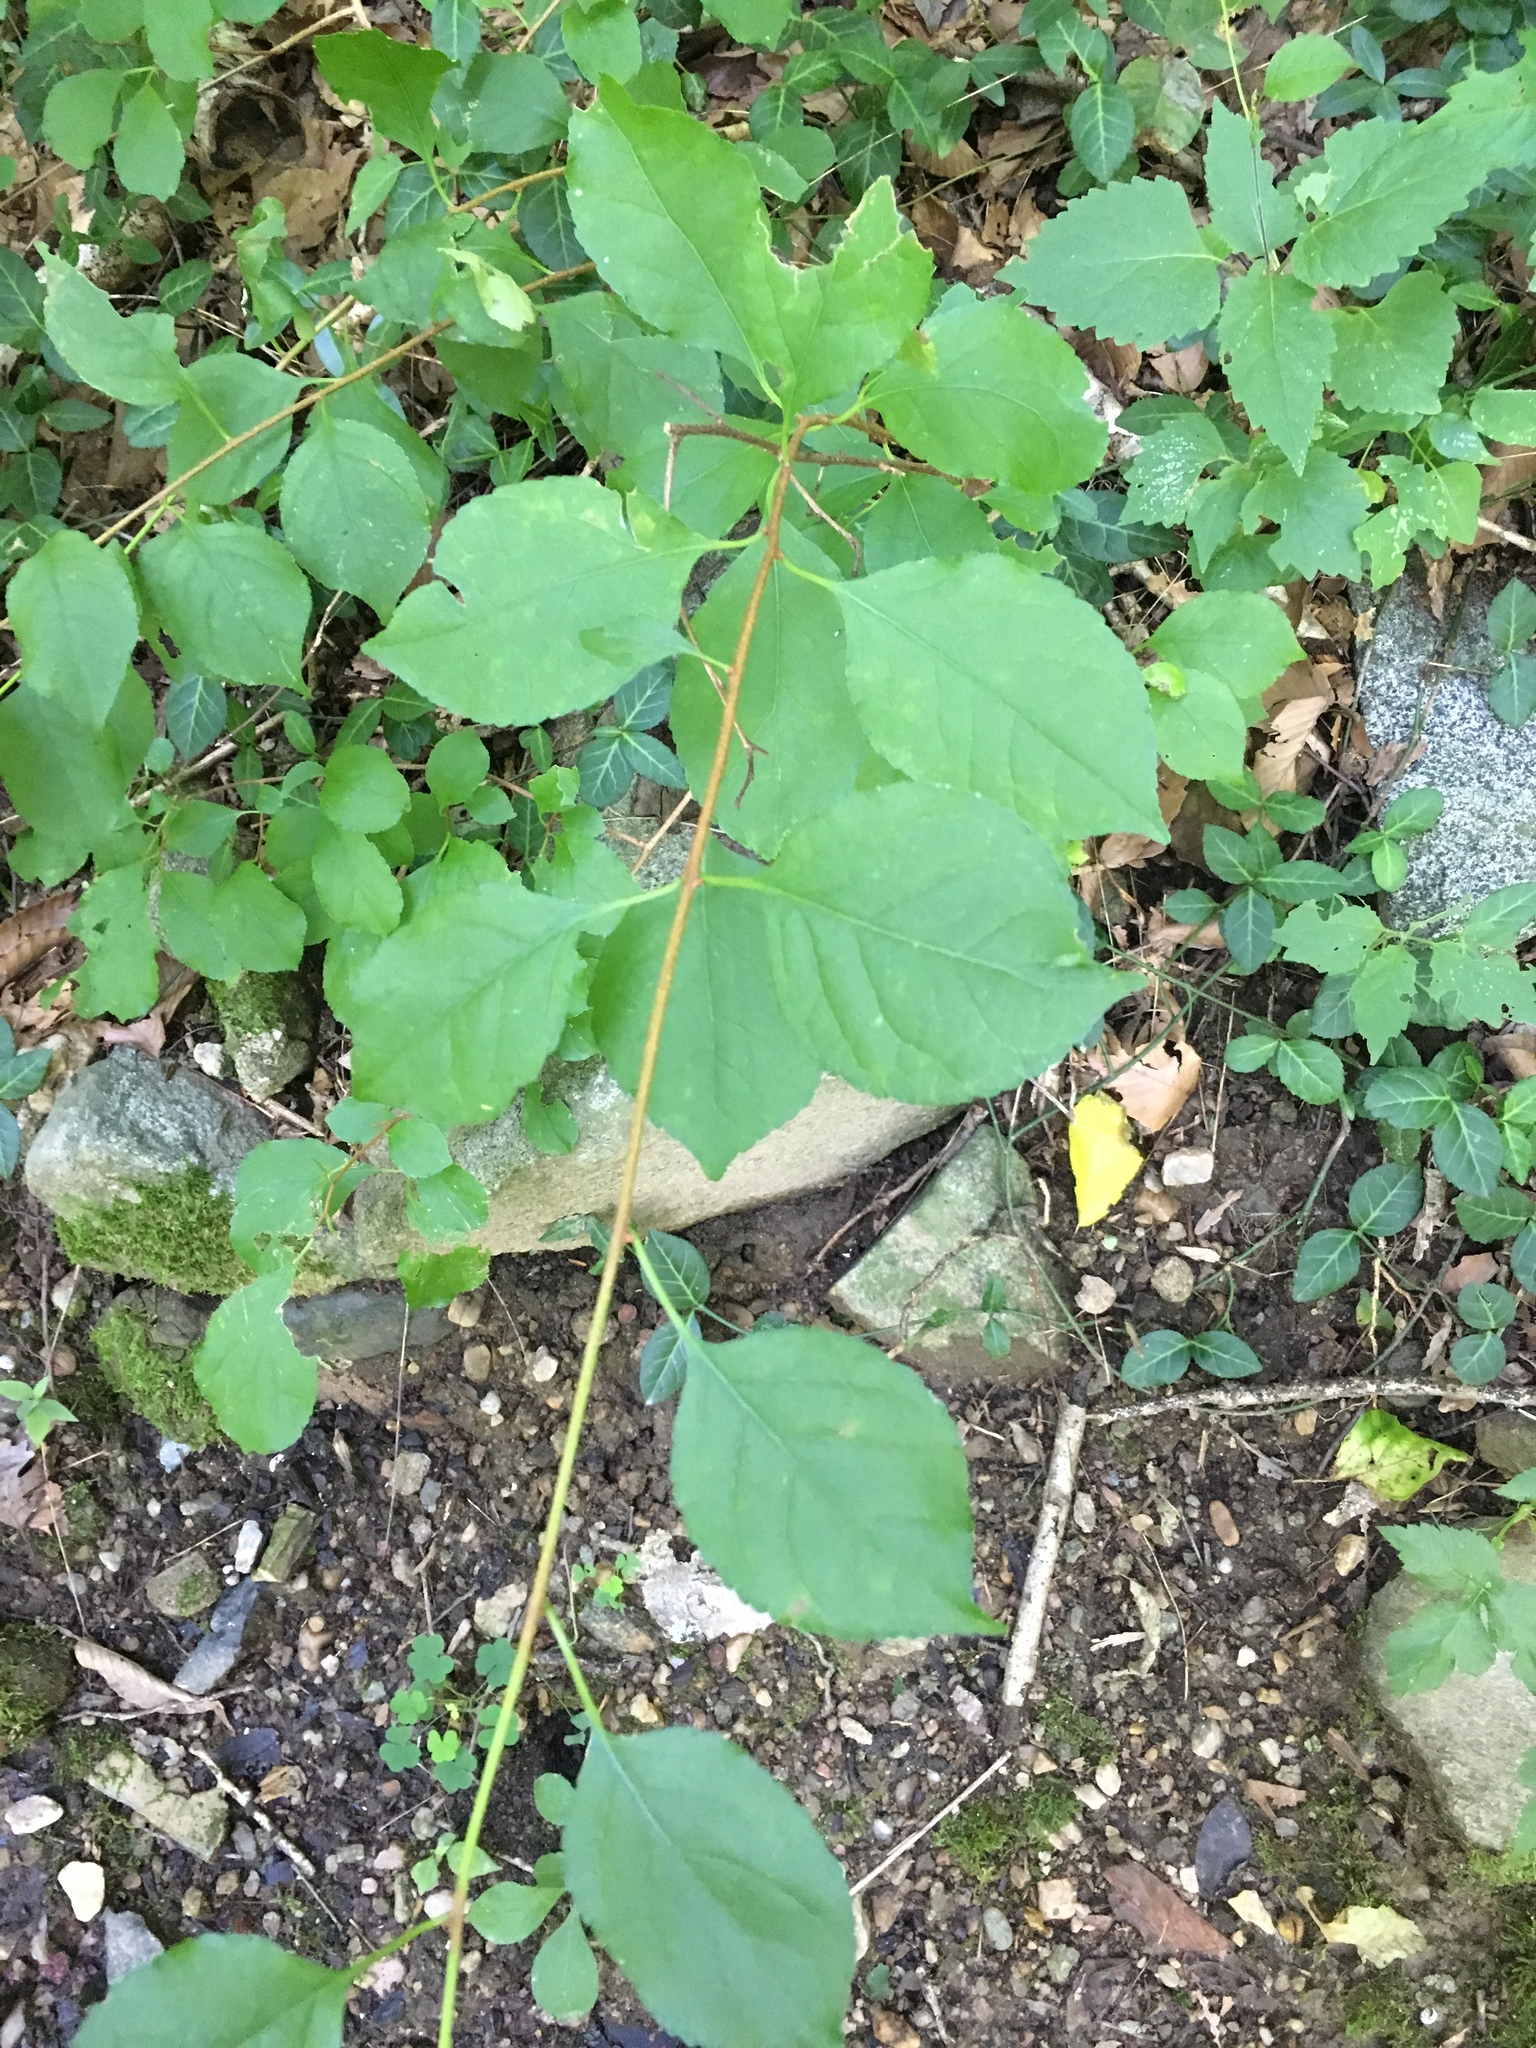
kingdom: Plantae
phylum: Tracheophyta
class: Magnoliopsida
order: Celastrales
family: Celastraceae
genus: Celastrus
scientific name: Celastrus orbiculatus
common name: Oriental bittersweet
